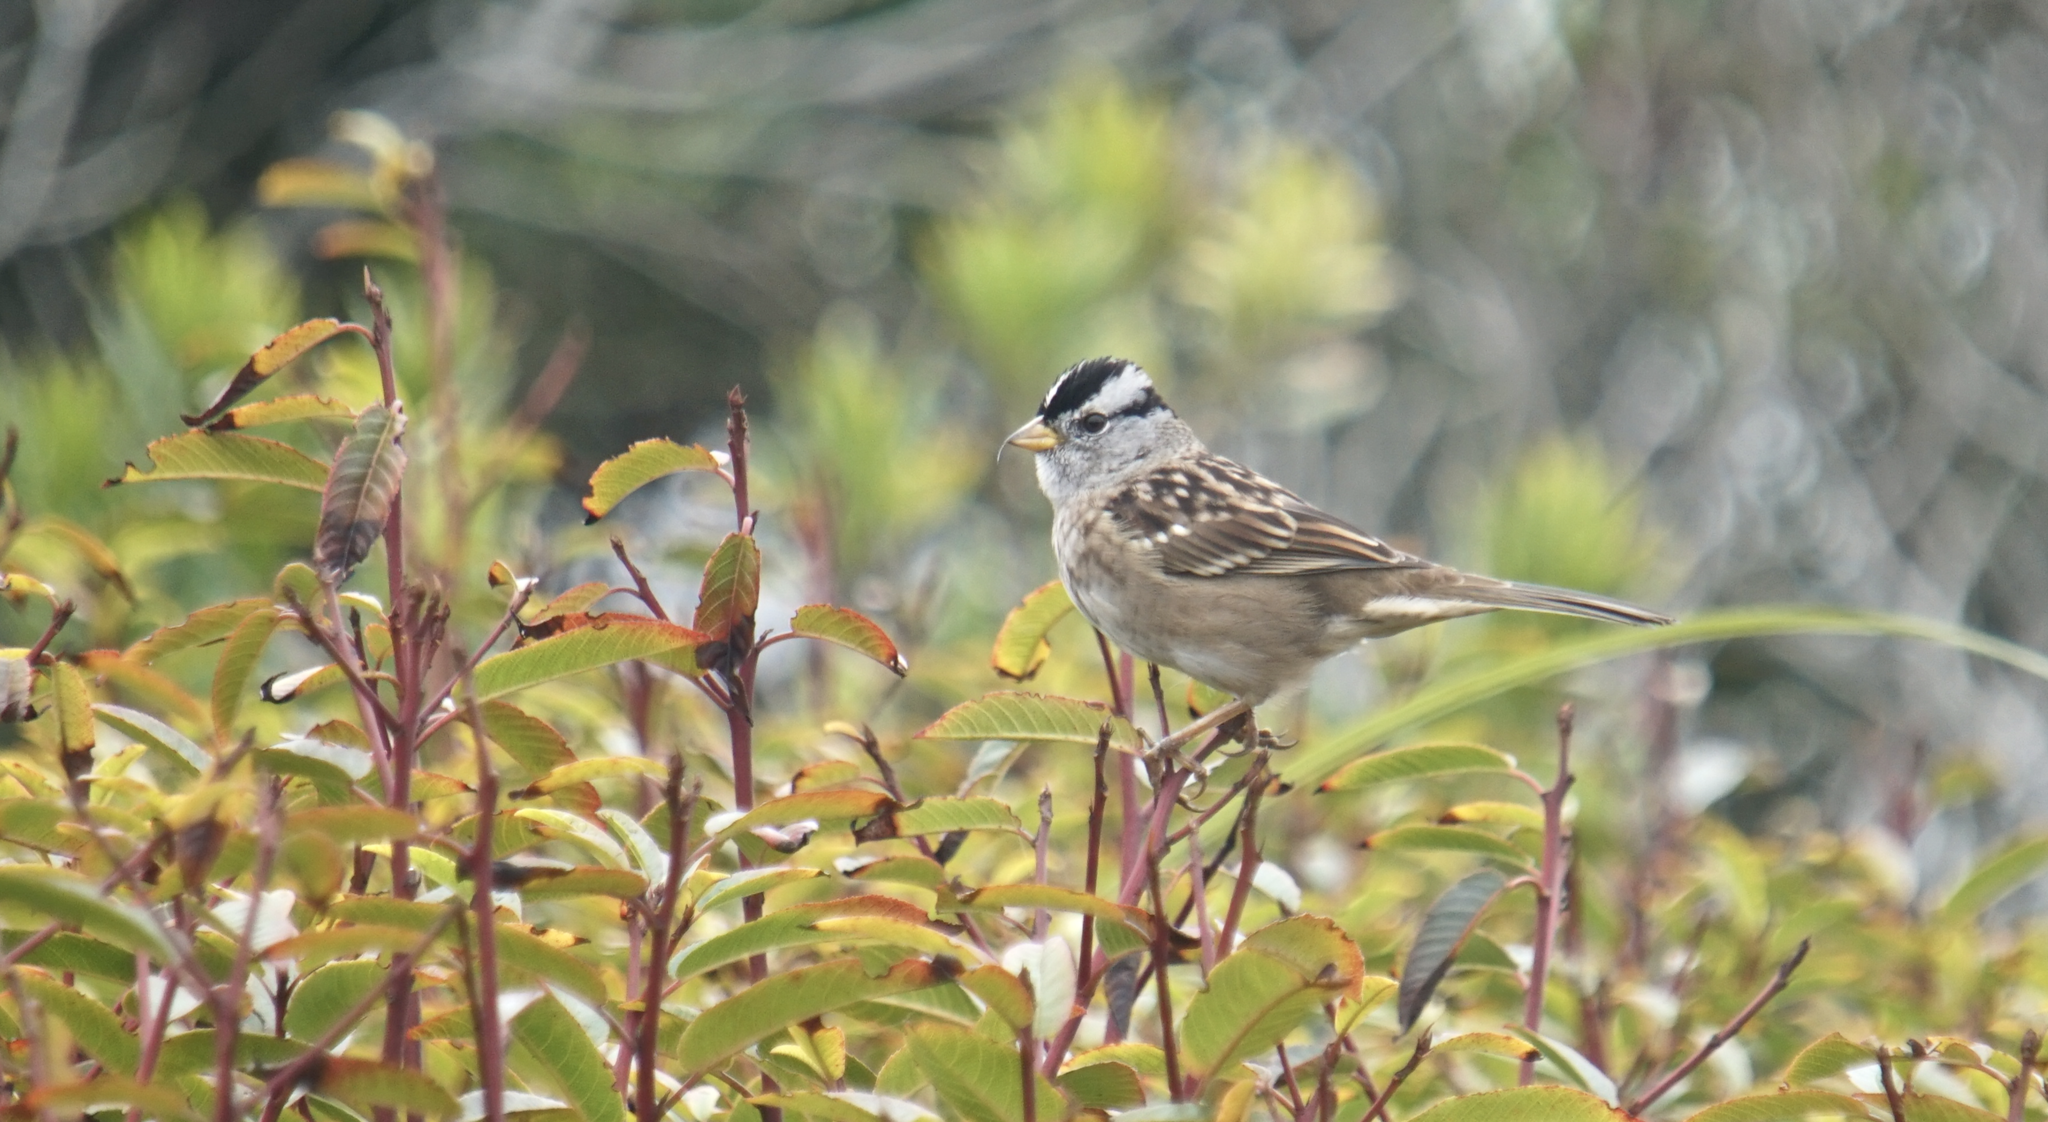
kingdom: Animalia
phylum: Chordata
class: Aves
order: Passeriformes
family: Passerellidae
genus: Zonotrichia
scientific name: Zonotrichia leucophrys
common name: White-crowned sparrow
